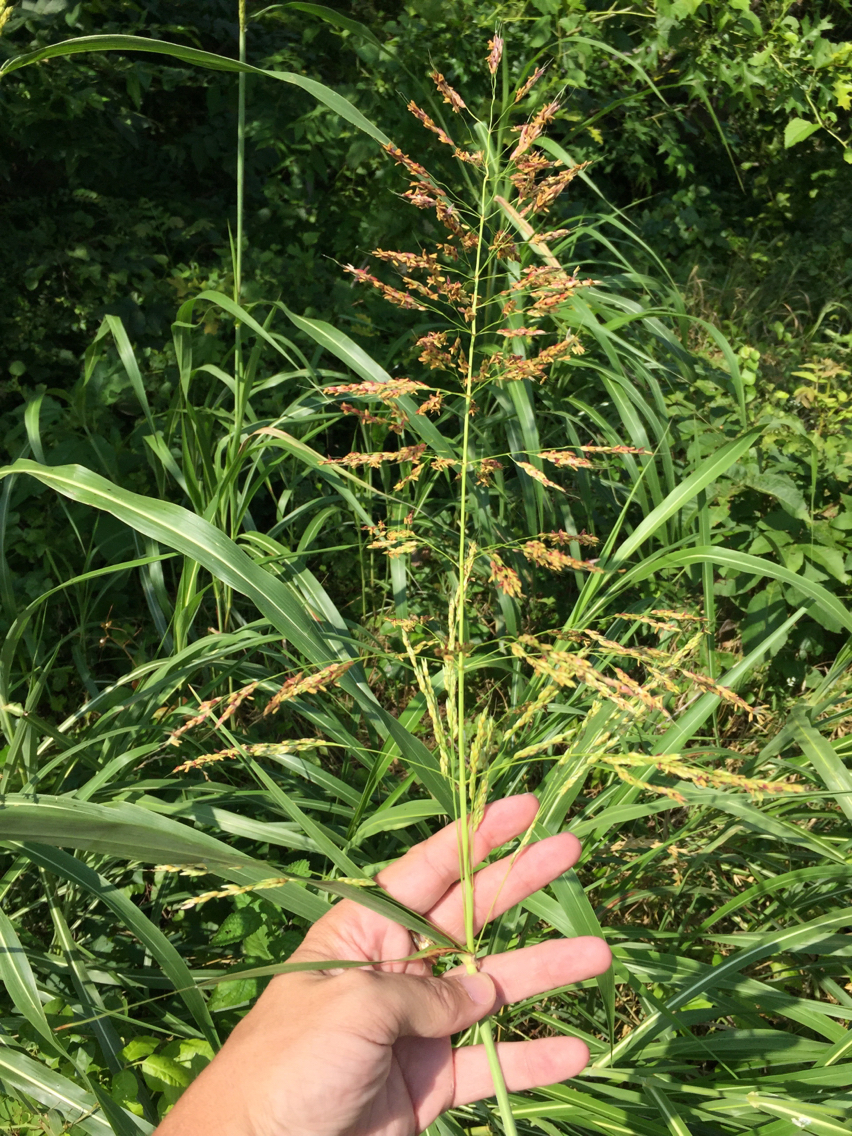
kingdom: Plantae
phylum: Tracheophyta
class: Liliopsida
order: Poales
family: Poaceae
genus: Sorghum
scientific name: Sorghum halepense
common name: Johnson-grass
